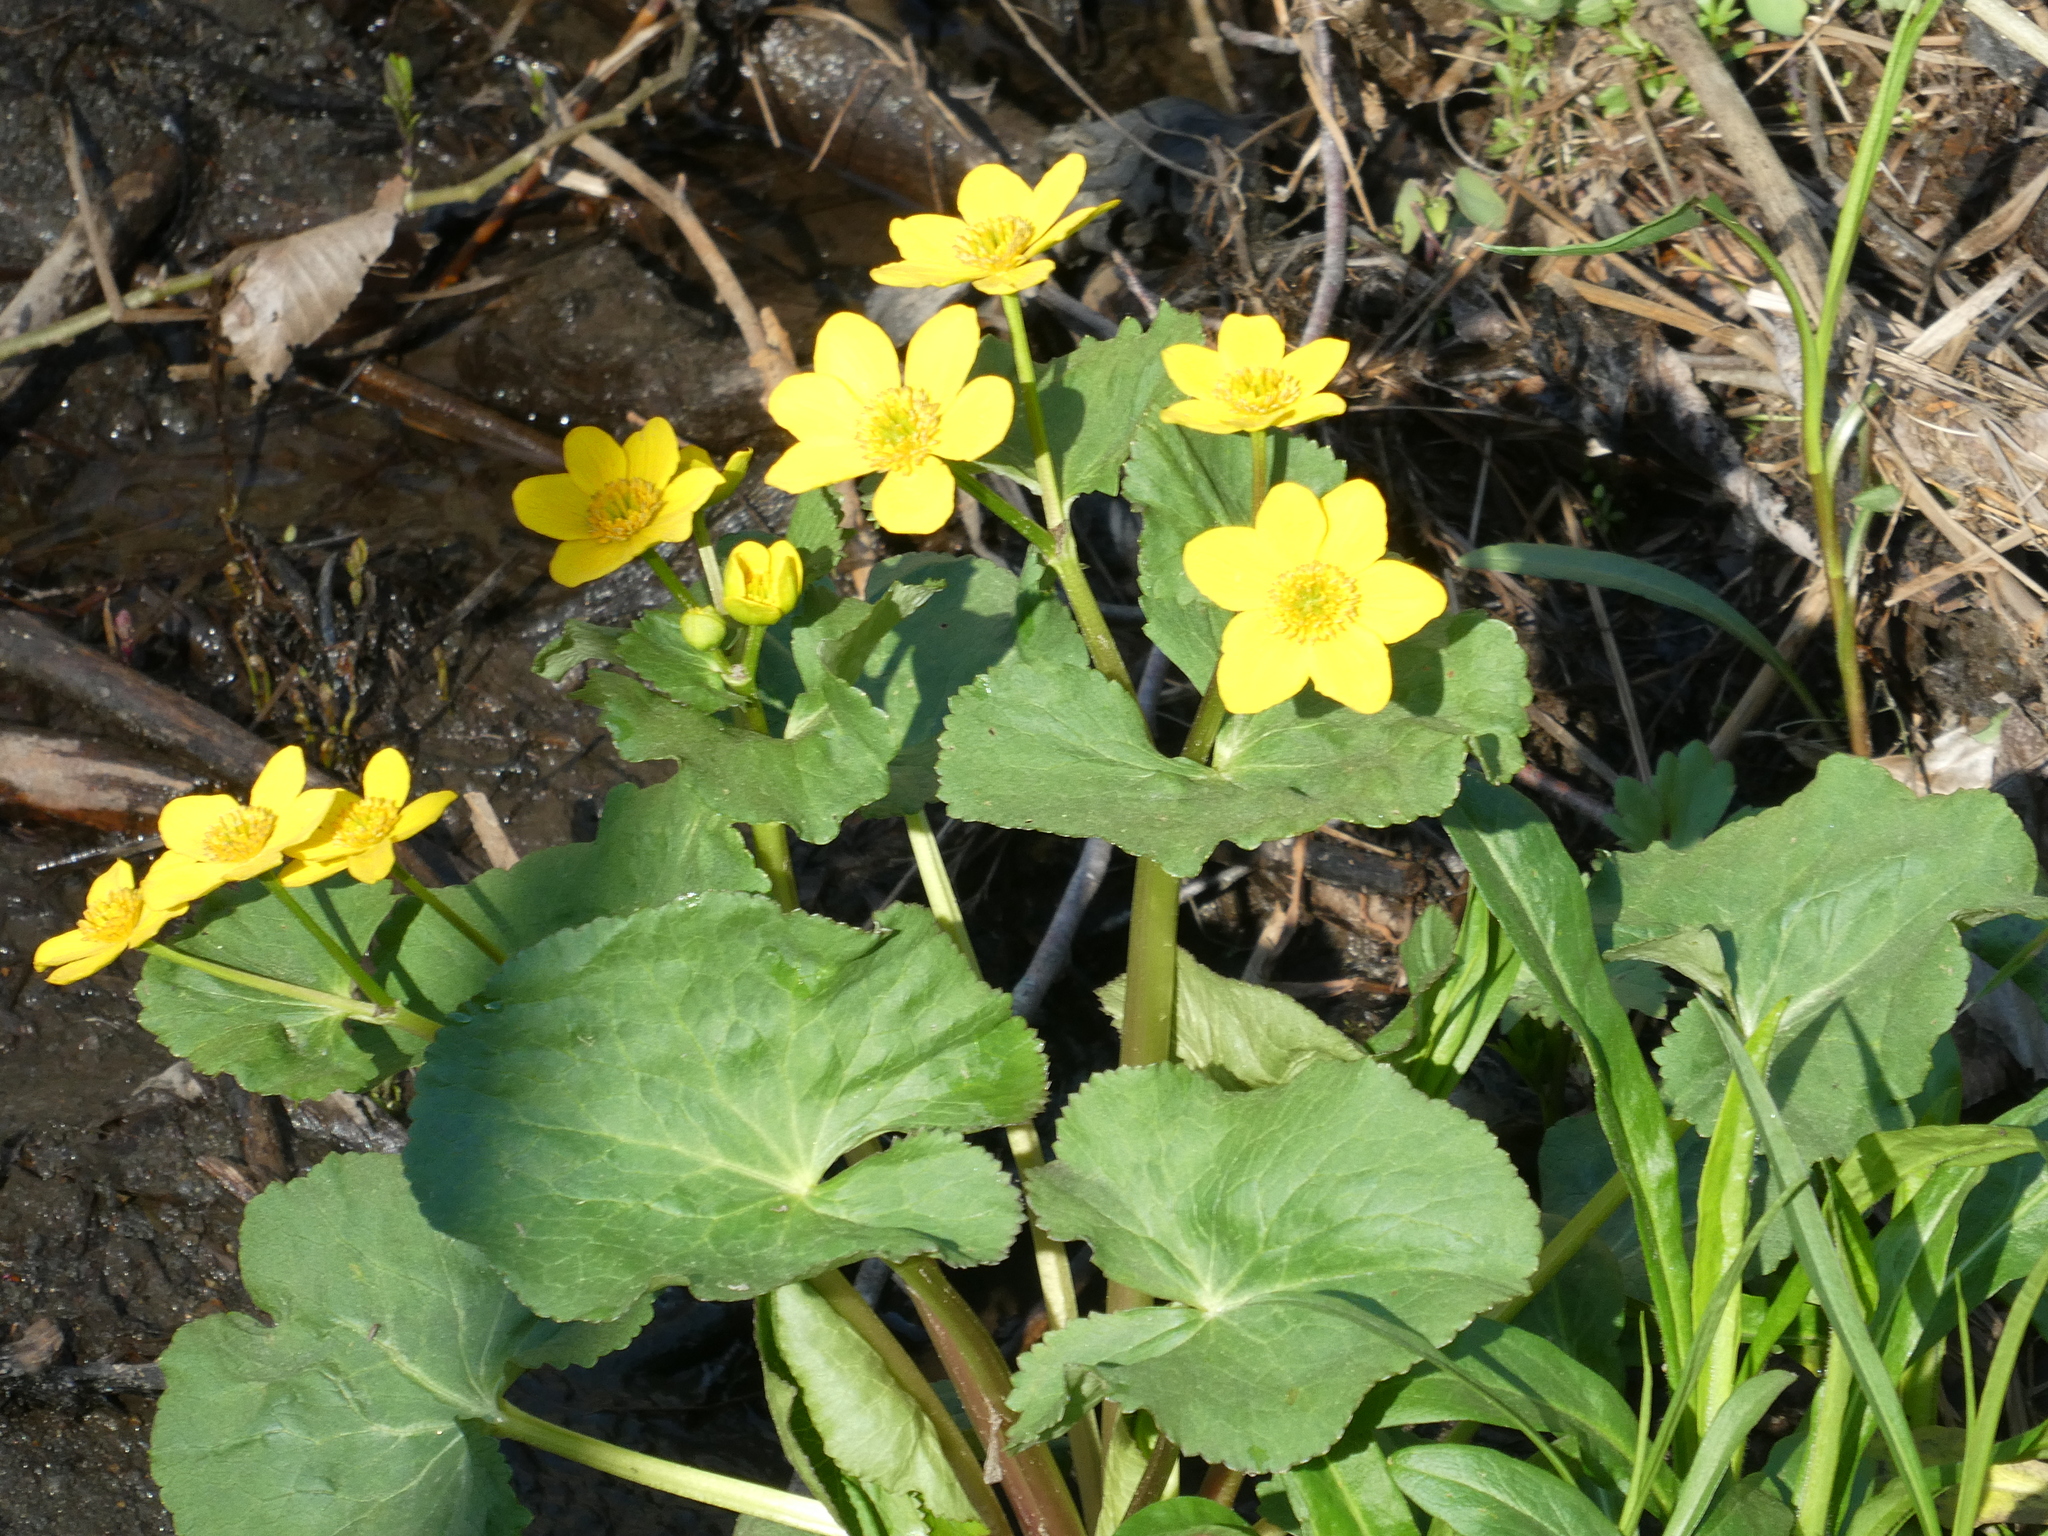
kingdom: Plantae
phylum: Tracheophyta
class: Magnoliopsida
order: Ranunculales
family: Ranunculaceae
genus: Caltha
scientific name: Caltha palustris
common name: Marsh marigold
